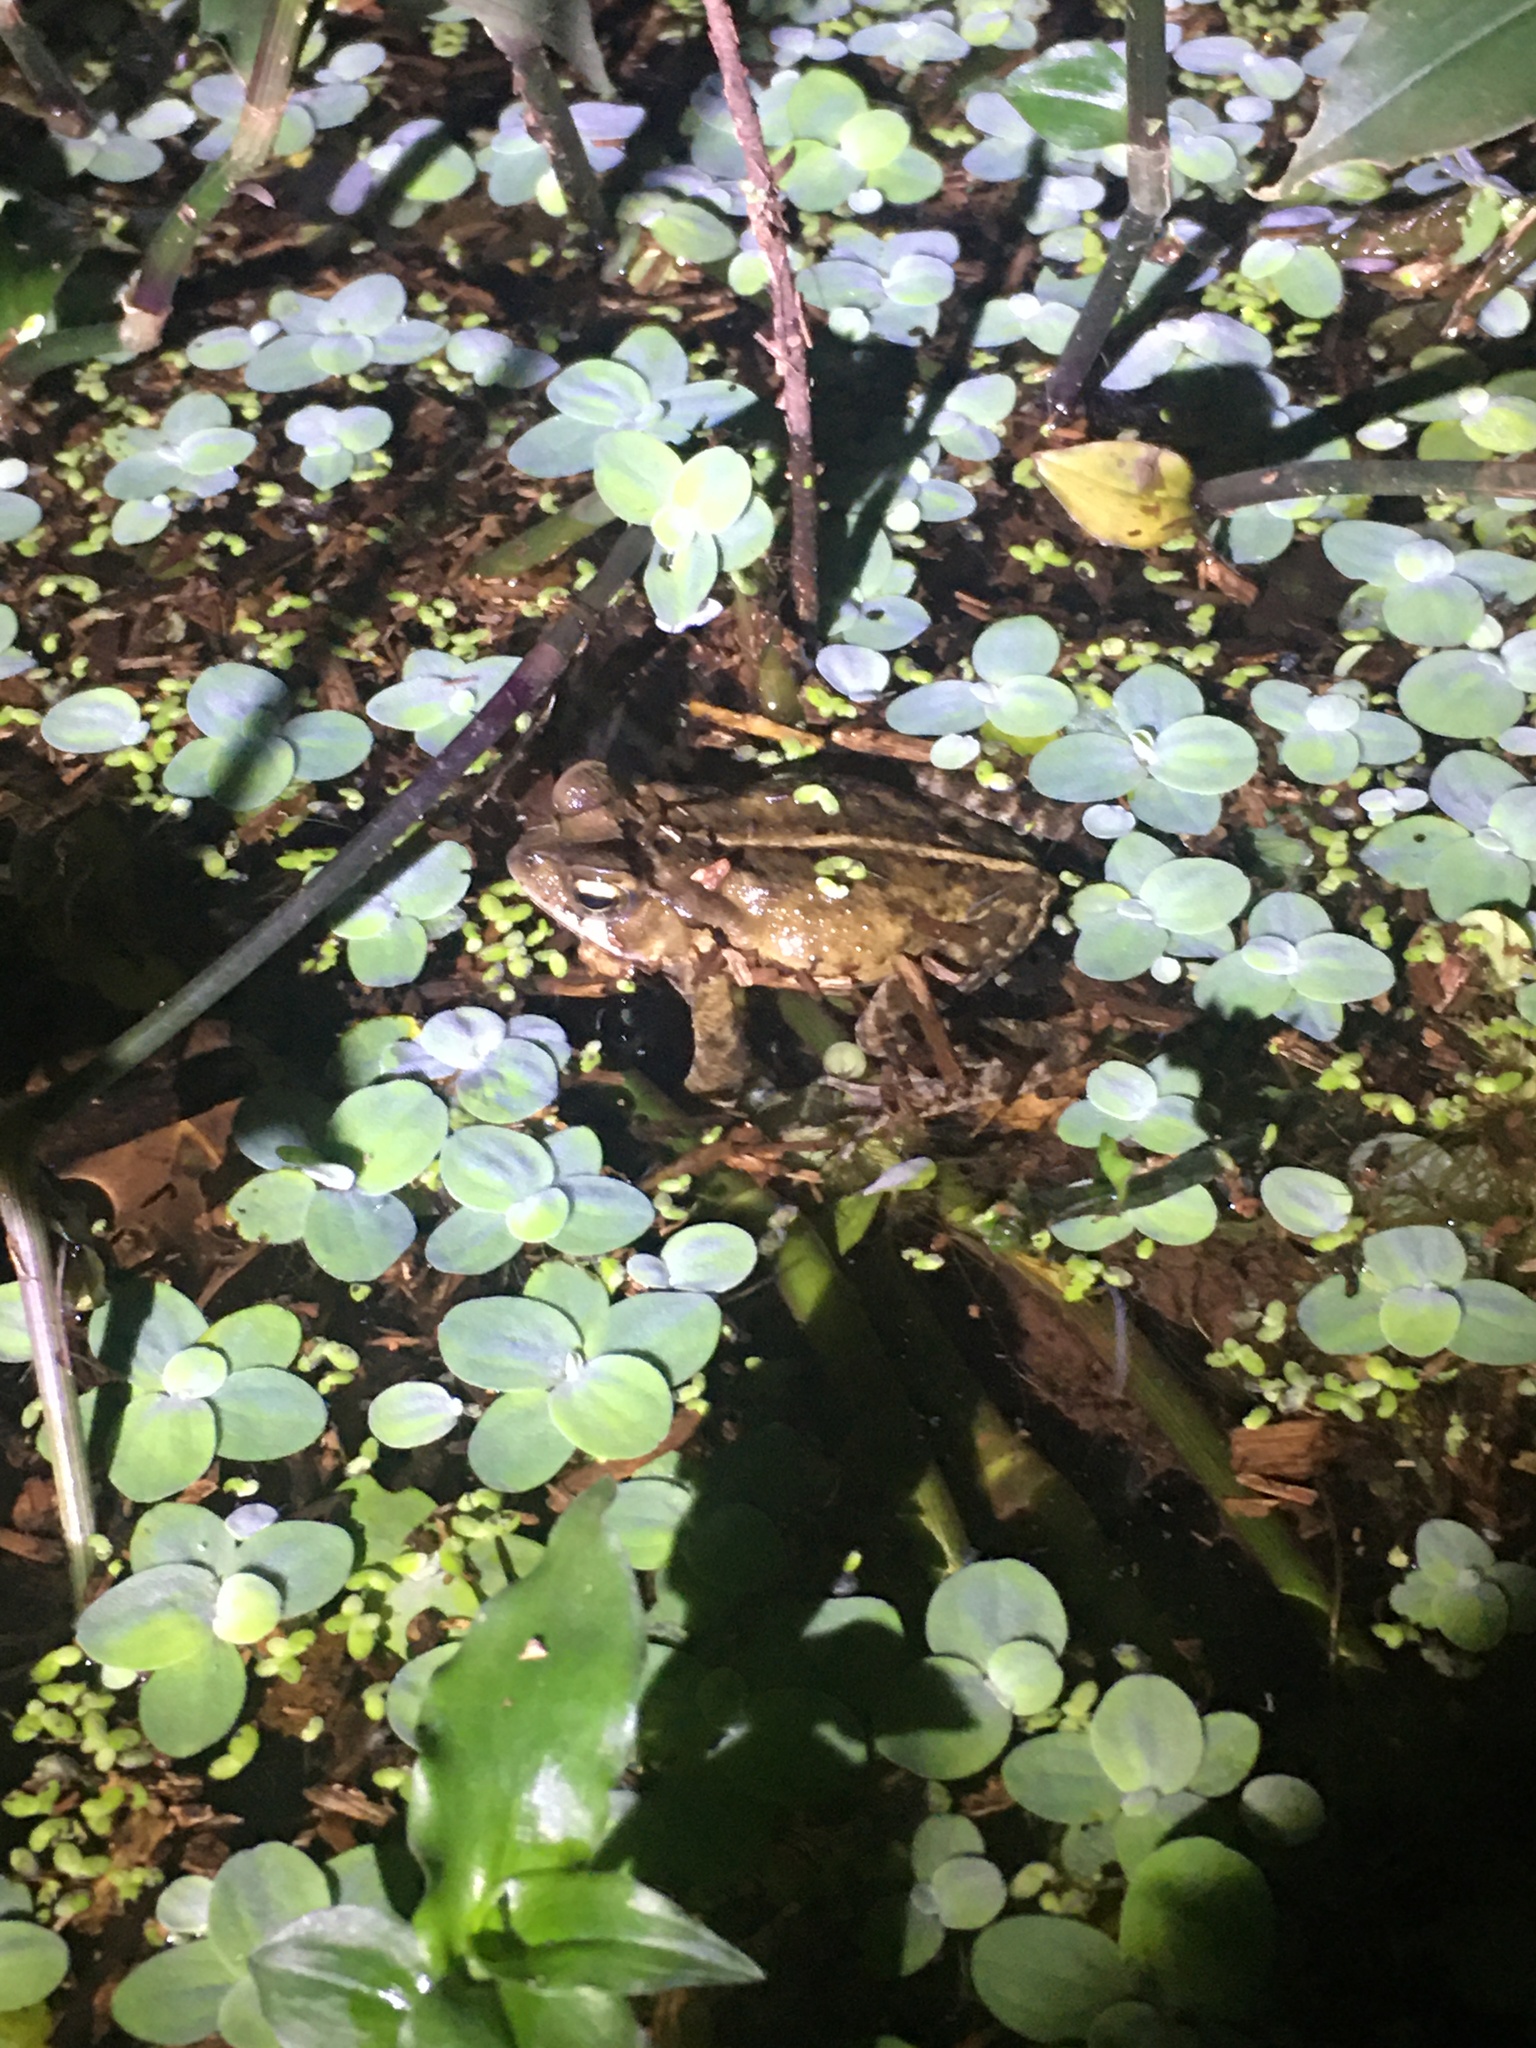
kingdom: Animalia
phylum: Chordata
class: Amphibia
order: Anura
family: Bufonidae
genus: Rhinella
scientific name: Rhinella ornata
